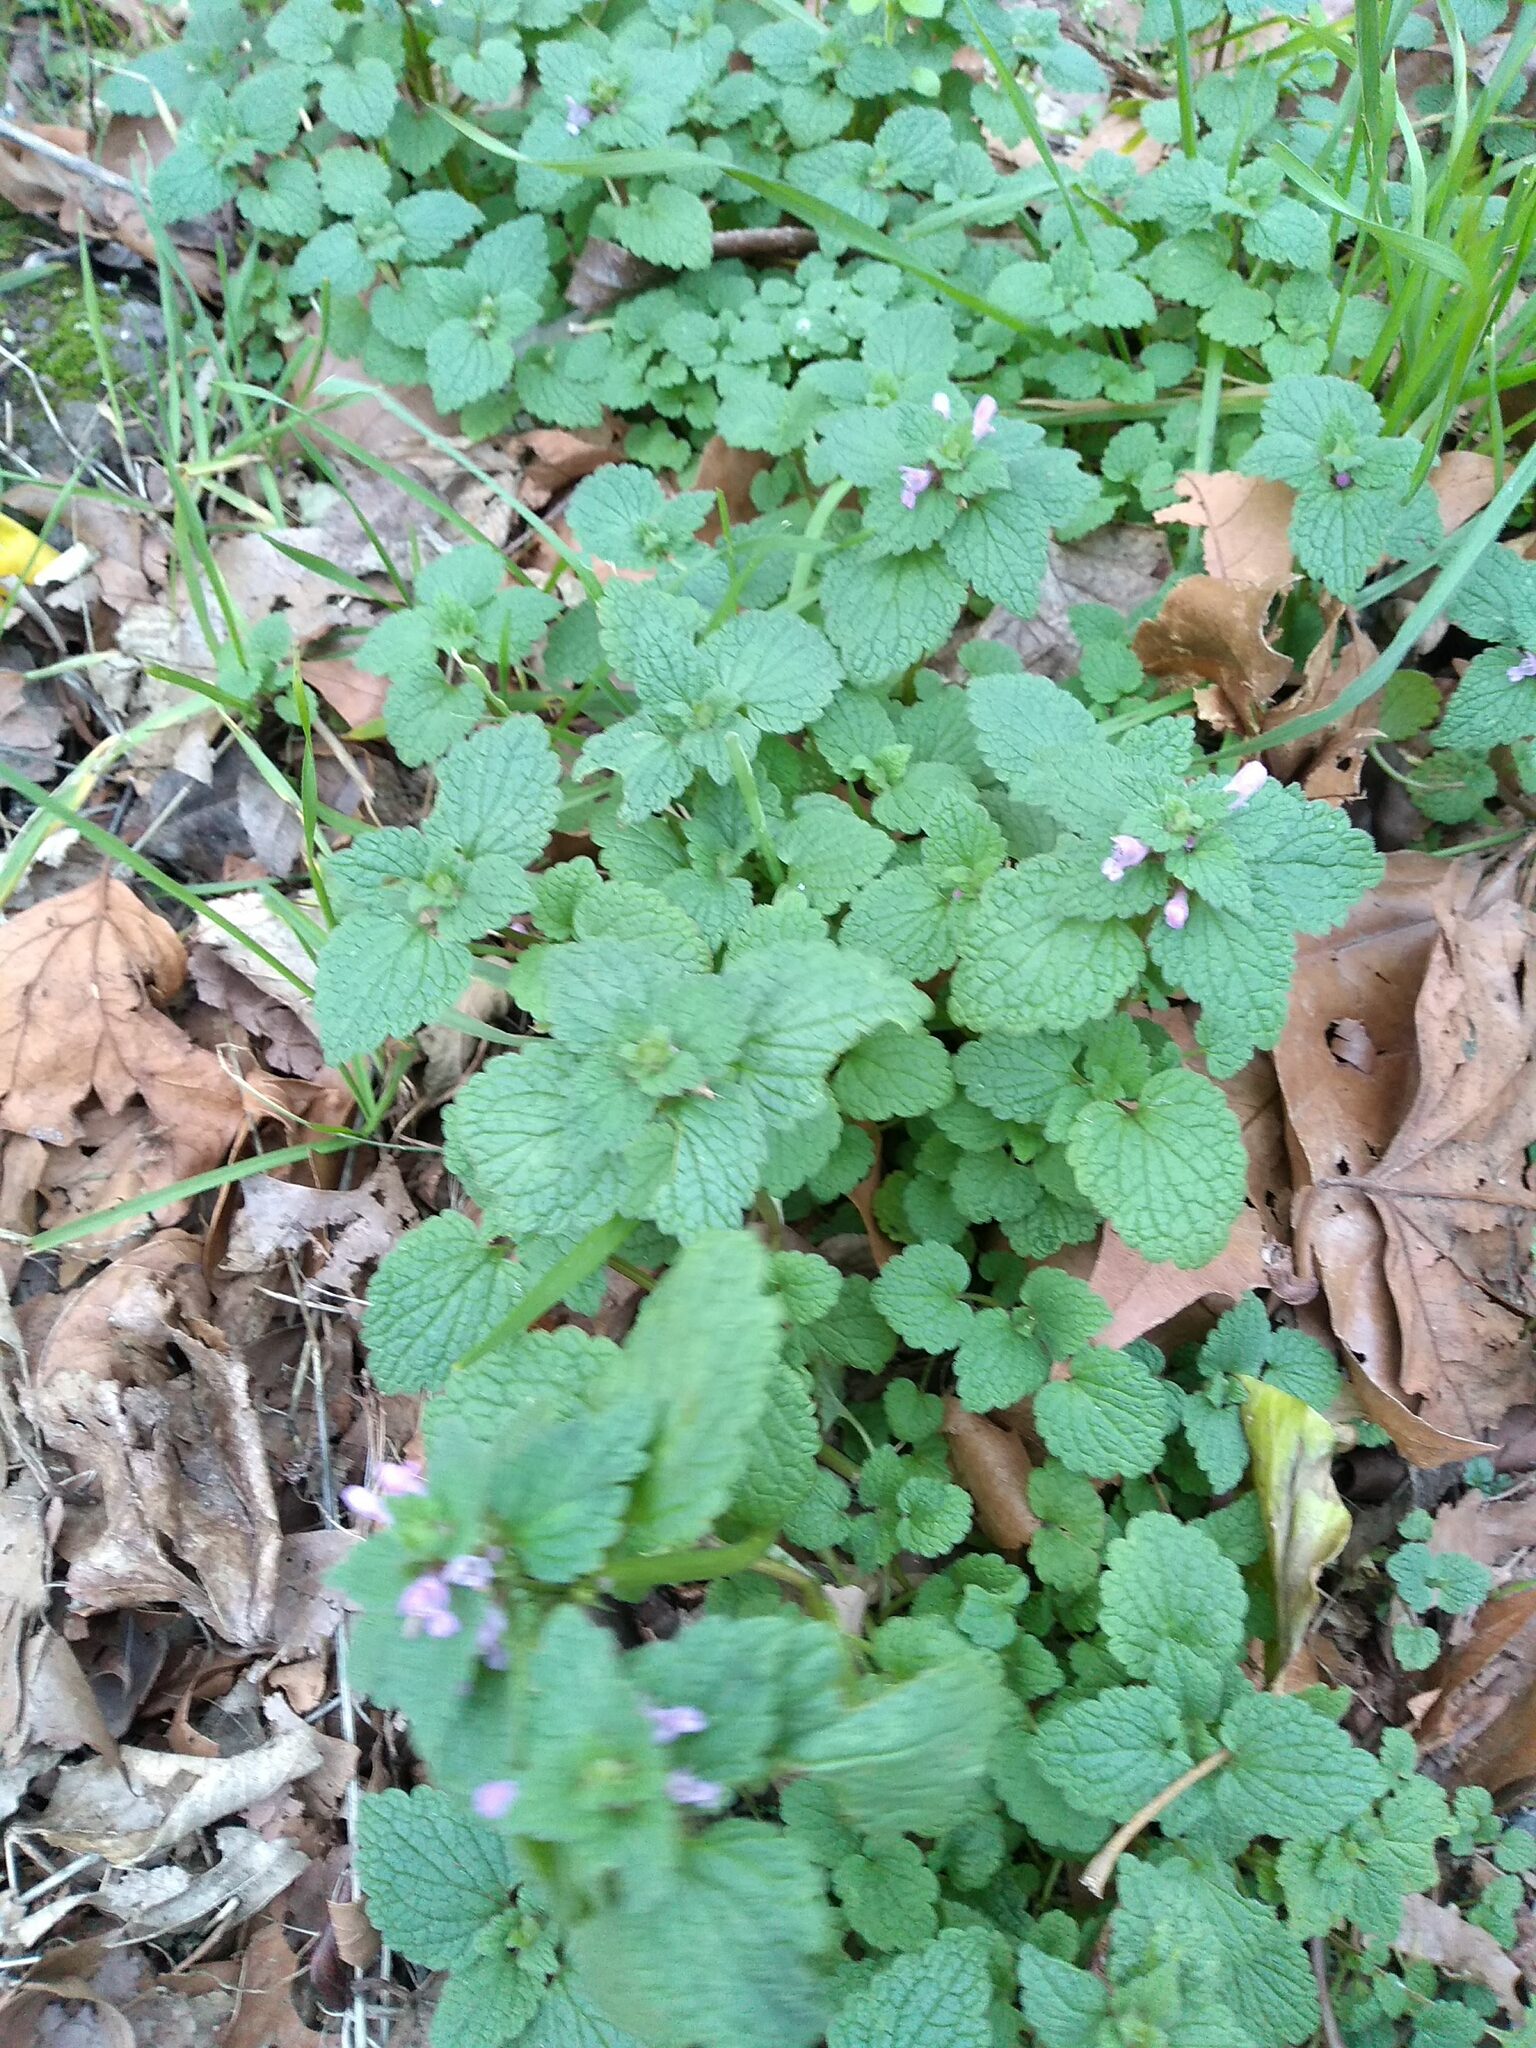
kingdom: Plantae
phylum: Tracheophyta
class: Magnoliopsida
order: Lamiales
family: Lamiaceae
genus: Lamium
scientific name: Lamium purpureum
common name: Red dead-nettle
